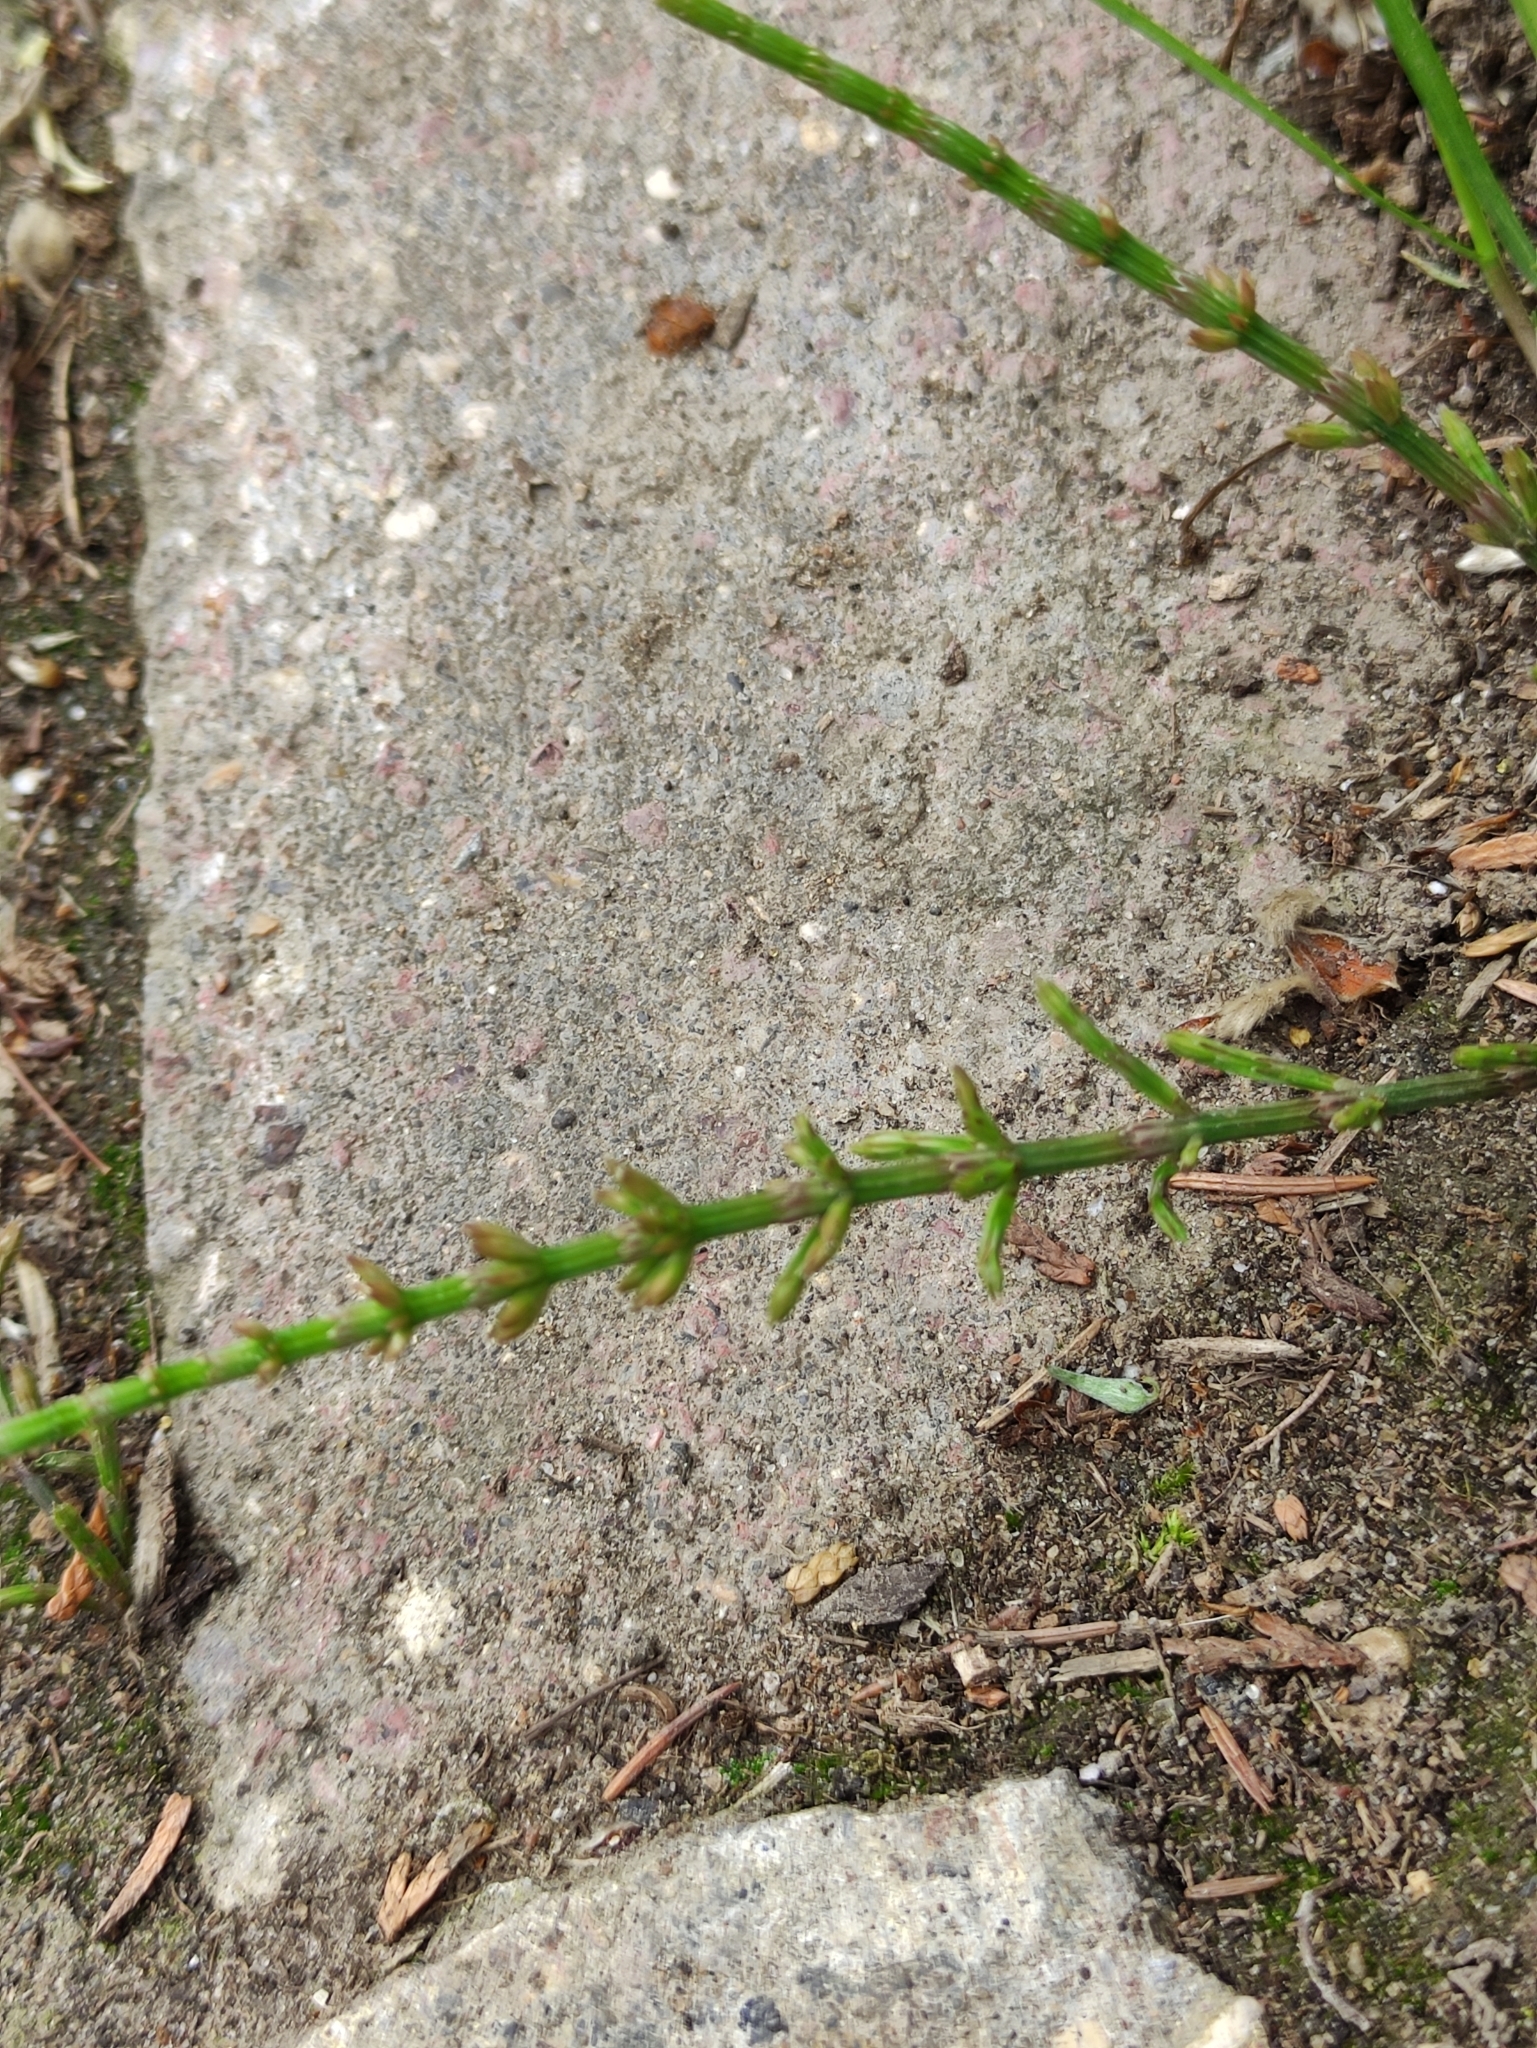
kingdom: Plantae
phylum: Tracheophyta
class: Polypodiopsida
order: Equisetales
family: Equisetaceae
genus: Equisetum
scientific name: Equisetum arvense
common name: Field horsetail
